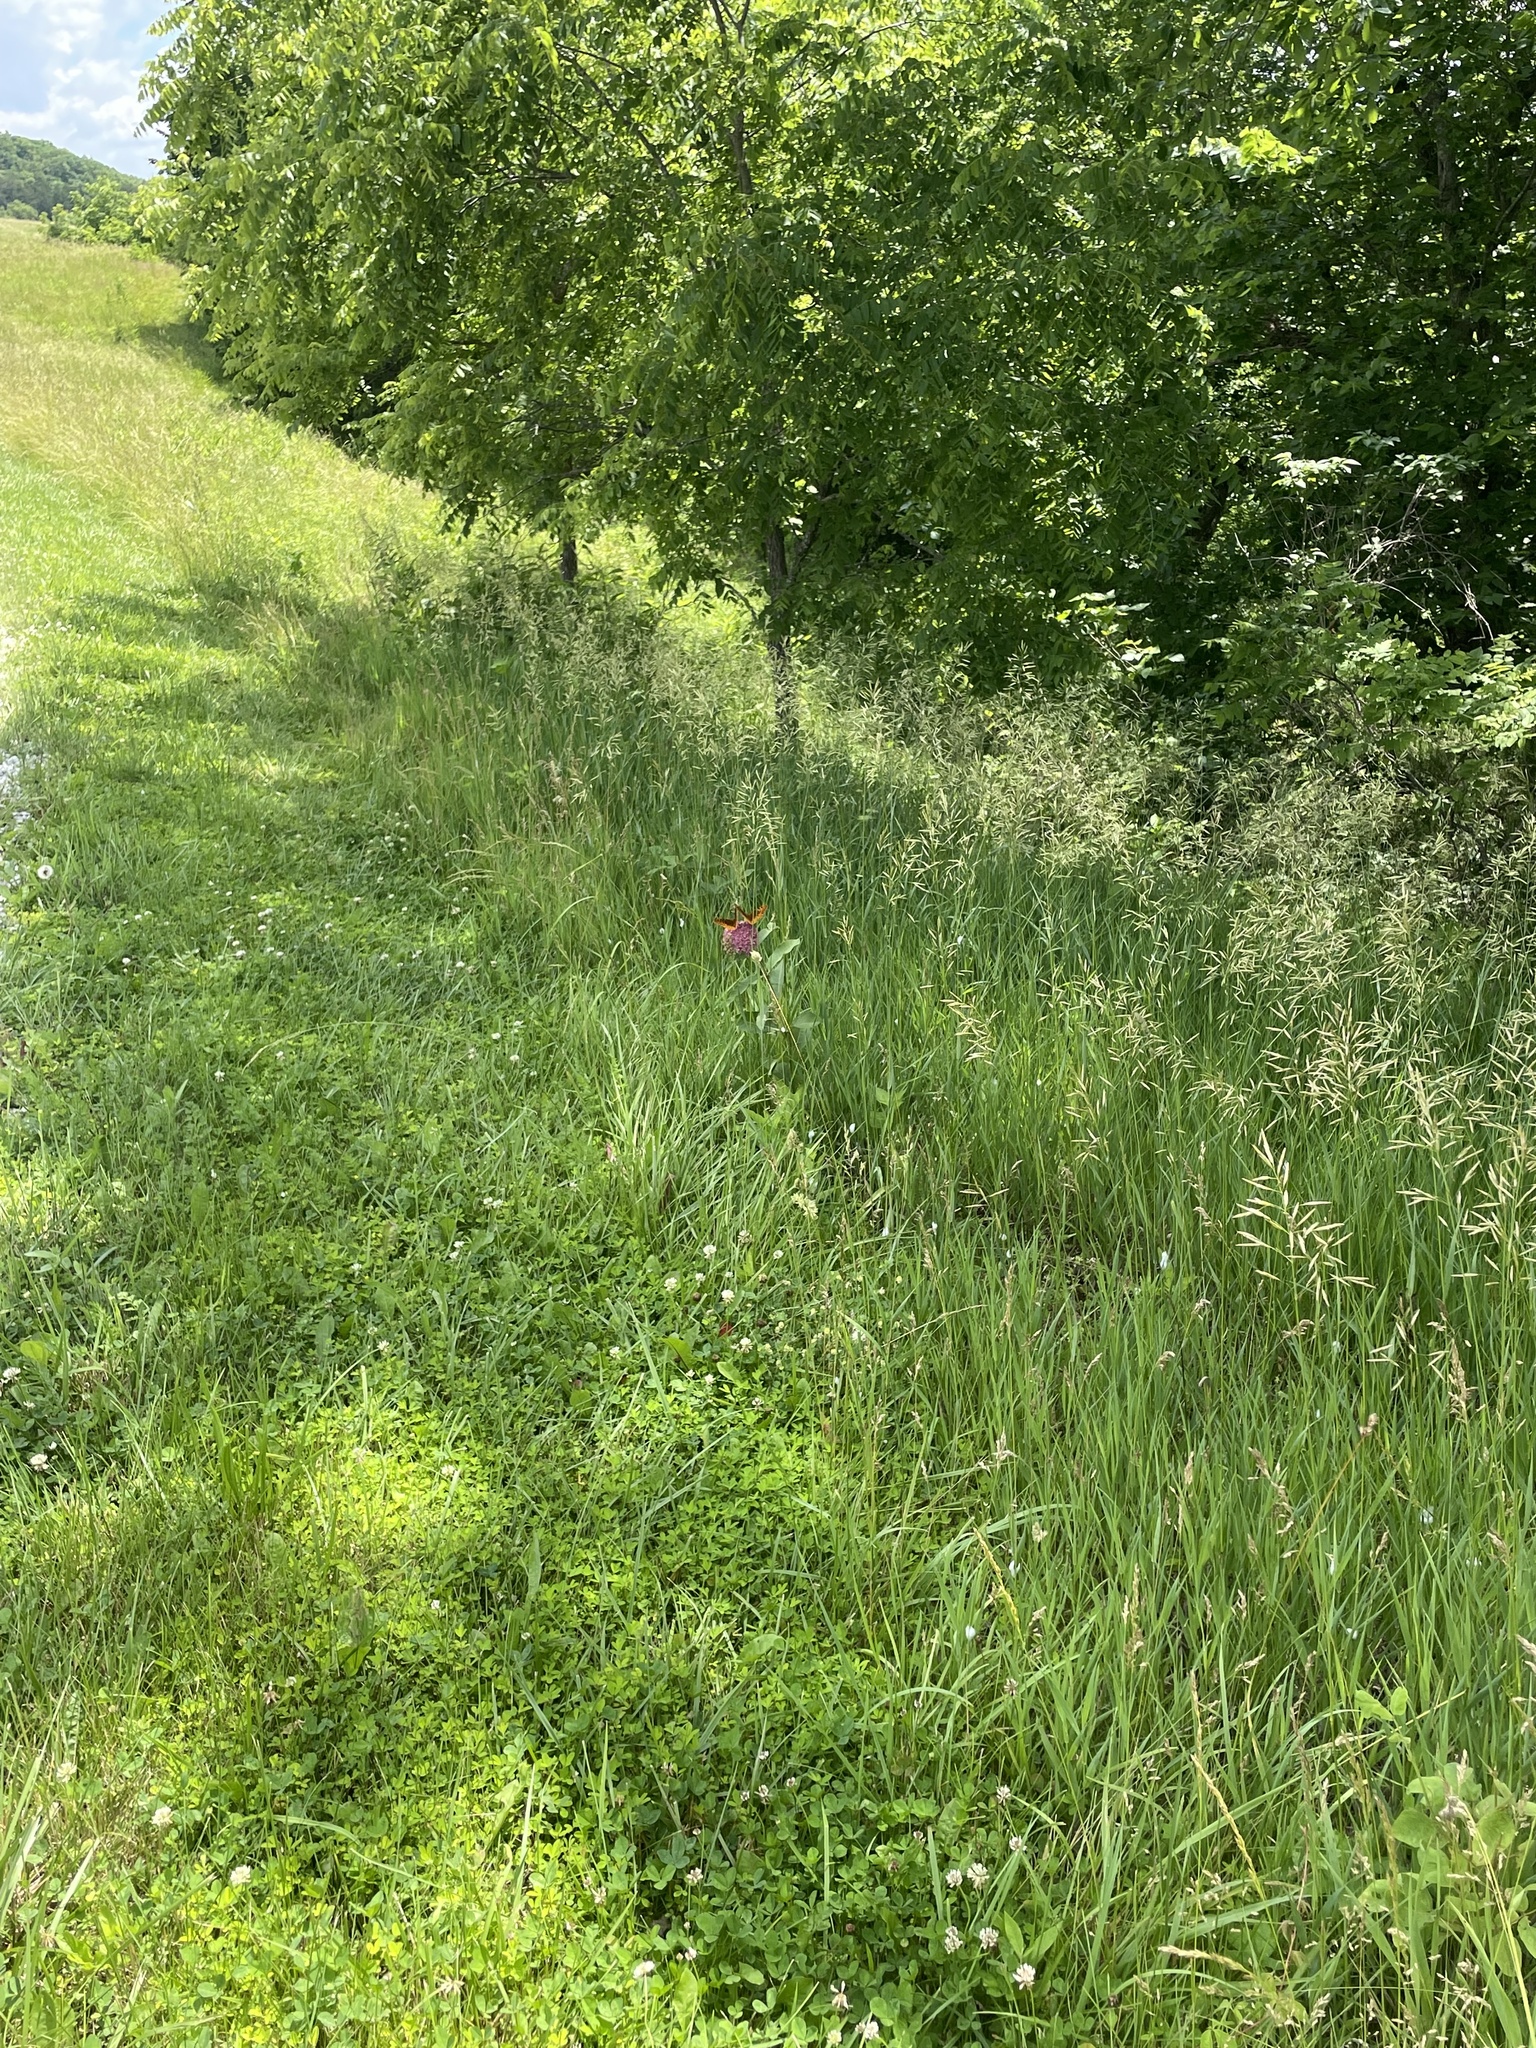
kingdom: Animalia
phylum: Arthropoda
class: Insecta
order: Lepidoptera
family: Nymphalidae
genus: Speyeria
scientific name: Speyeria cybele
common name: Great spangled fritillary
